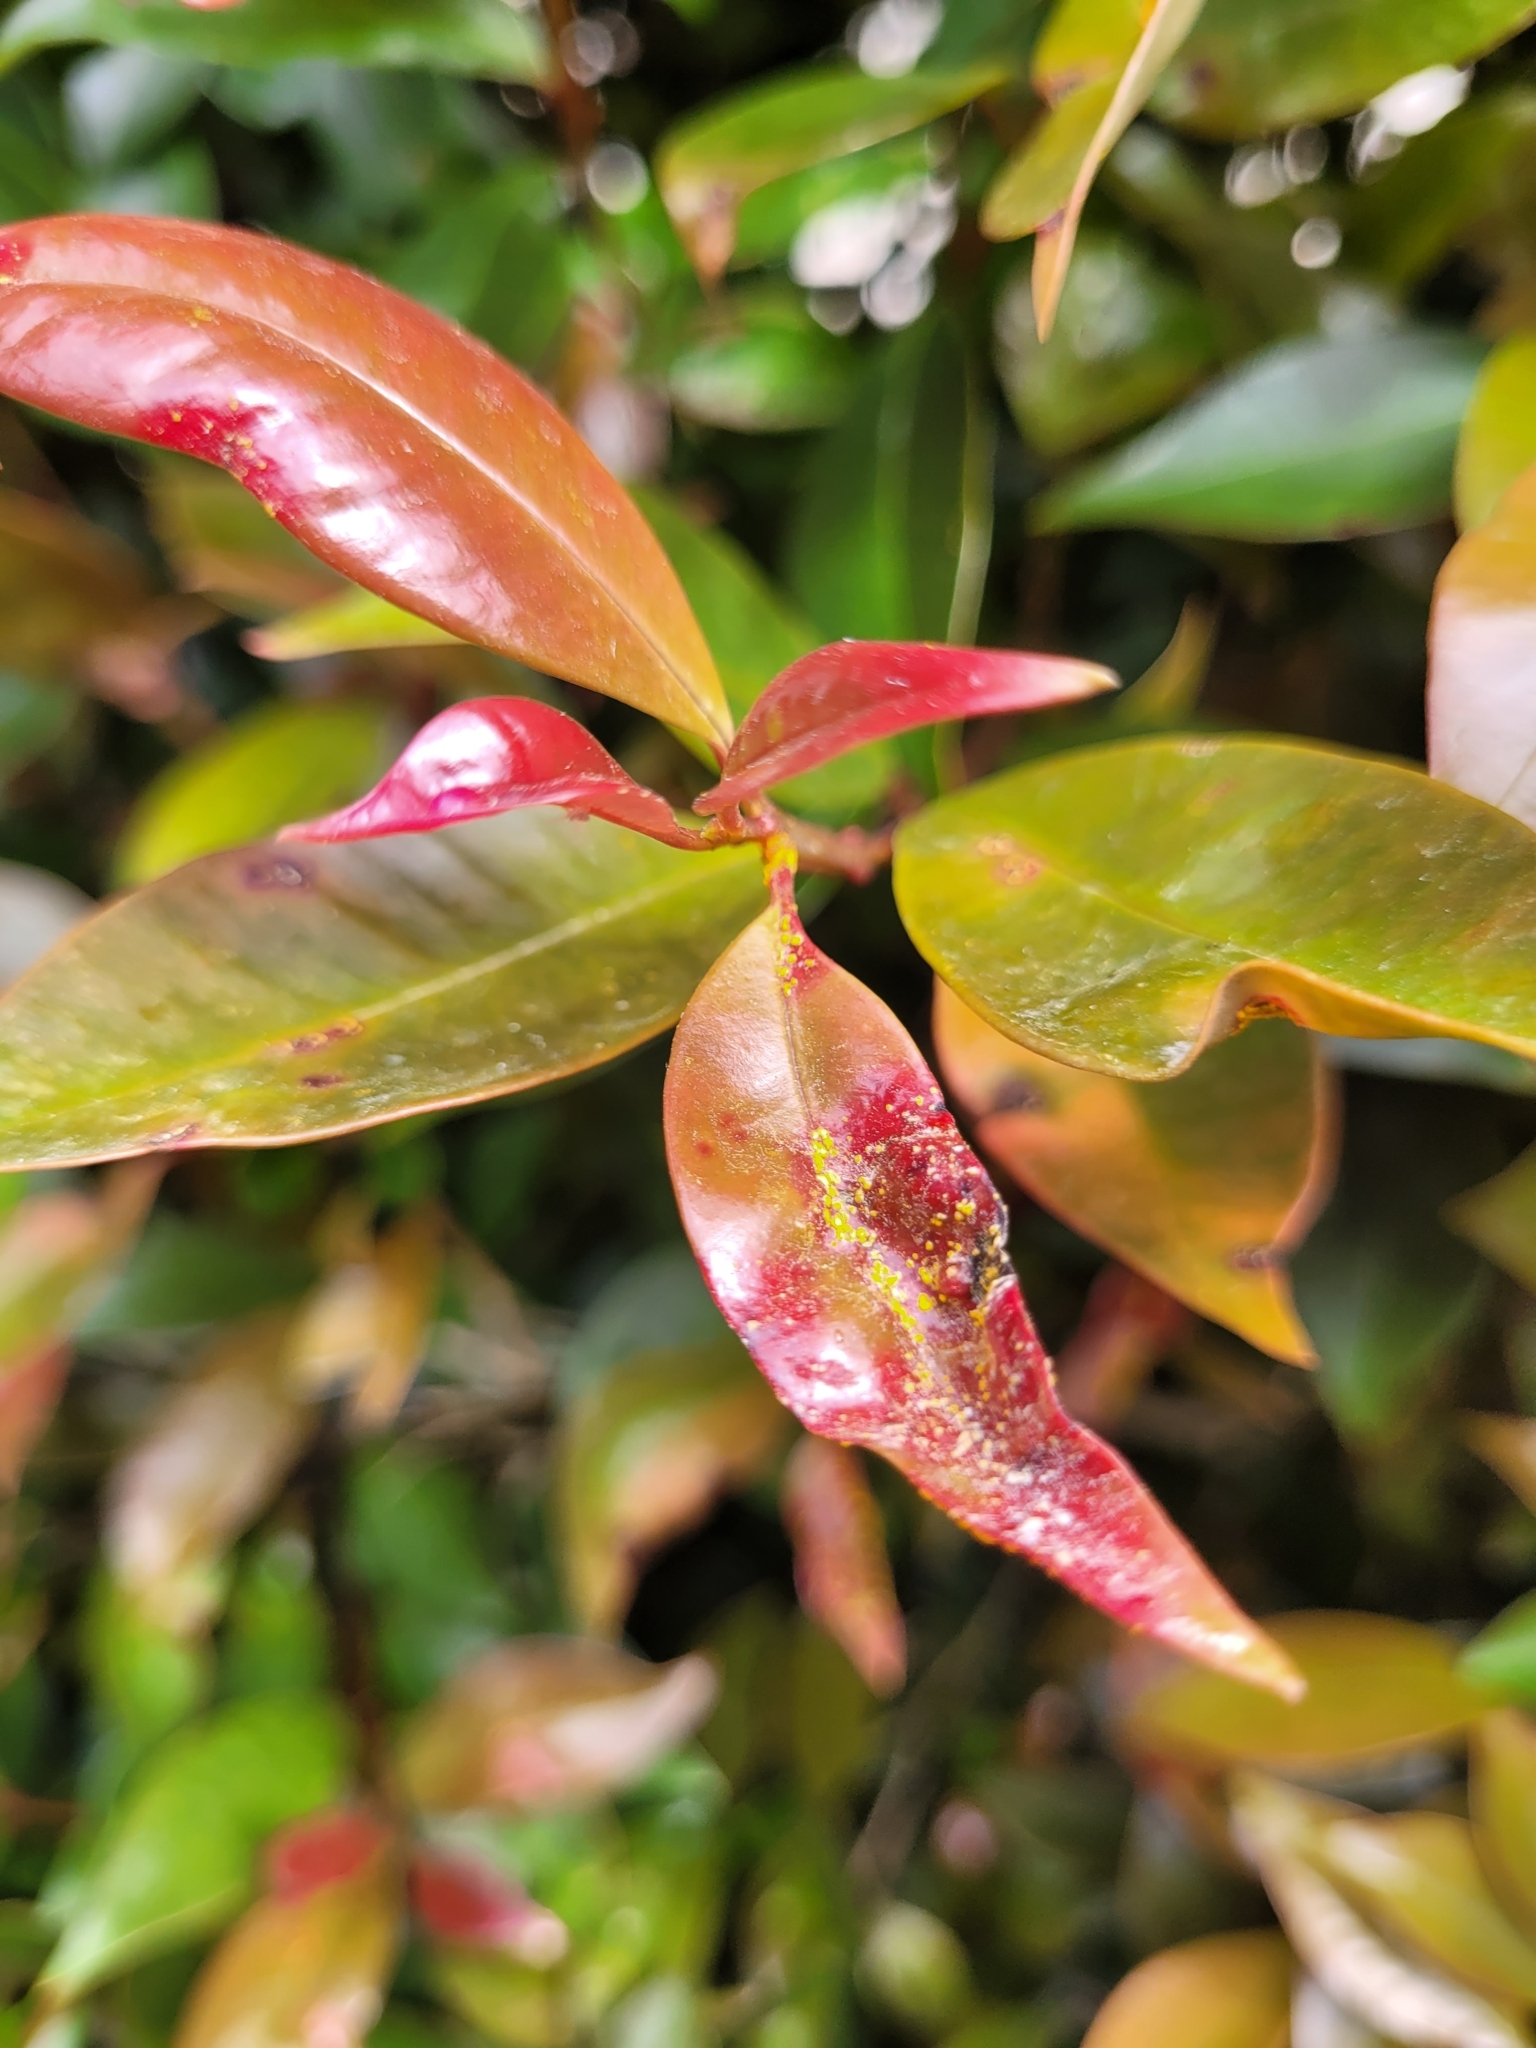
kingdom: Fungi
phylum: Basidiomycota
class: Pucciniomycetes
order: Pucciniales
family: Sphaerophragmiaceae
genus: Austropuccinia
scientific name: Austropuccinia psidii
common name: Myrtle rust
